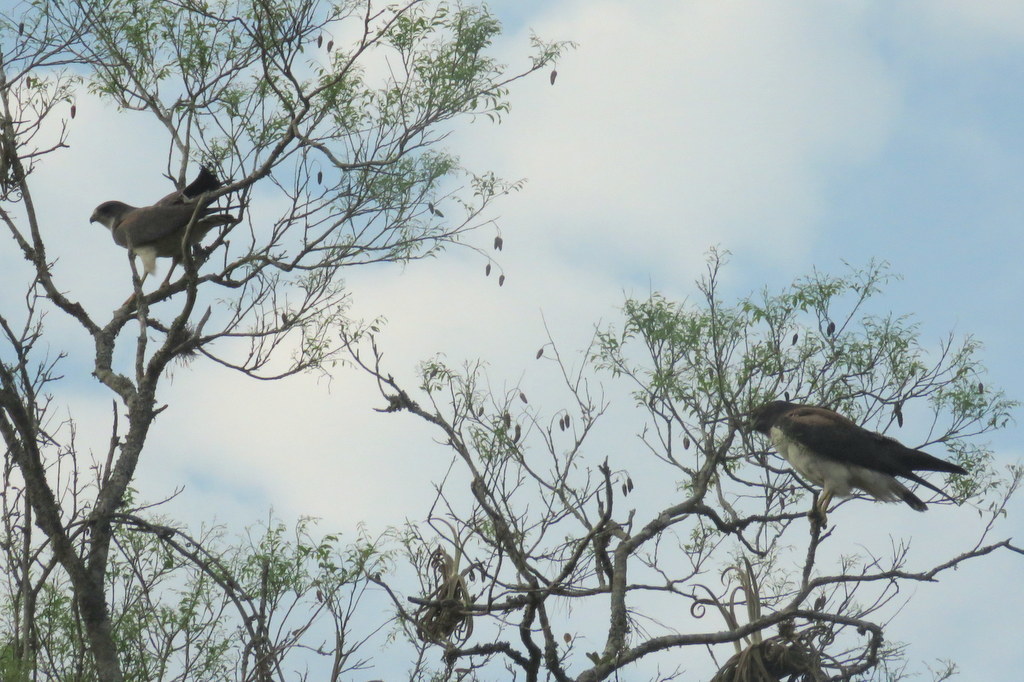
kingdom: Animalia
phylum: Chordata
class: Aves
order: Accipitriformes
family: Accipitridae
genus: Buteo
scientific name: Buteo albicaudatus
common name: White-tailed hawk
